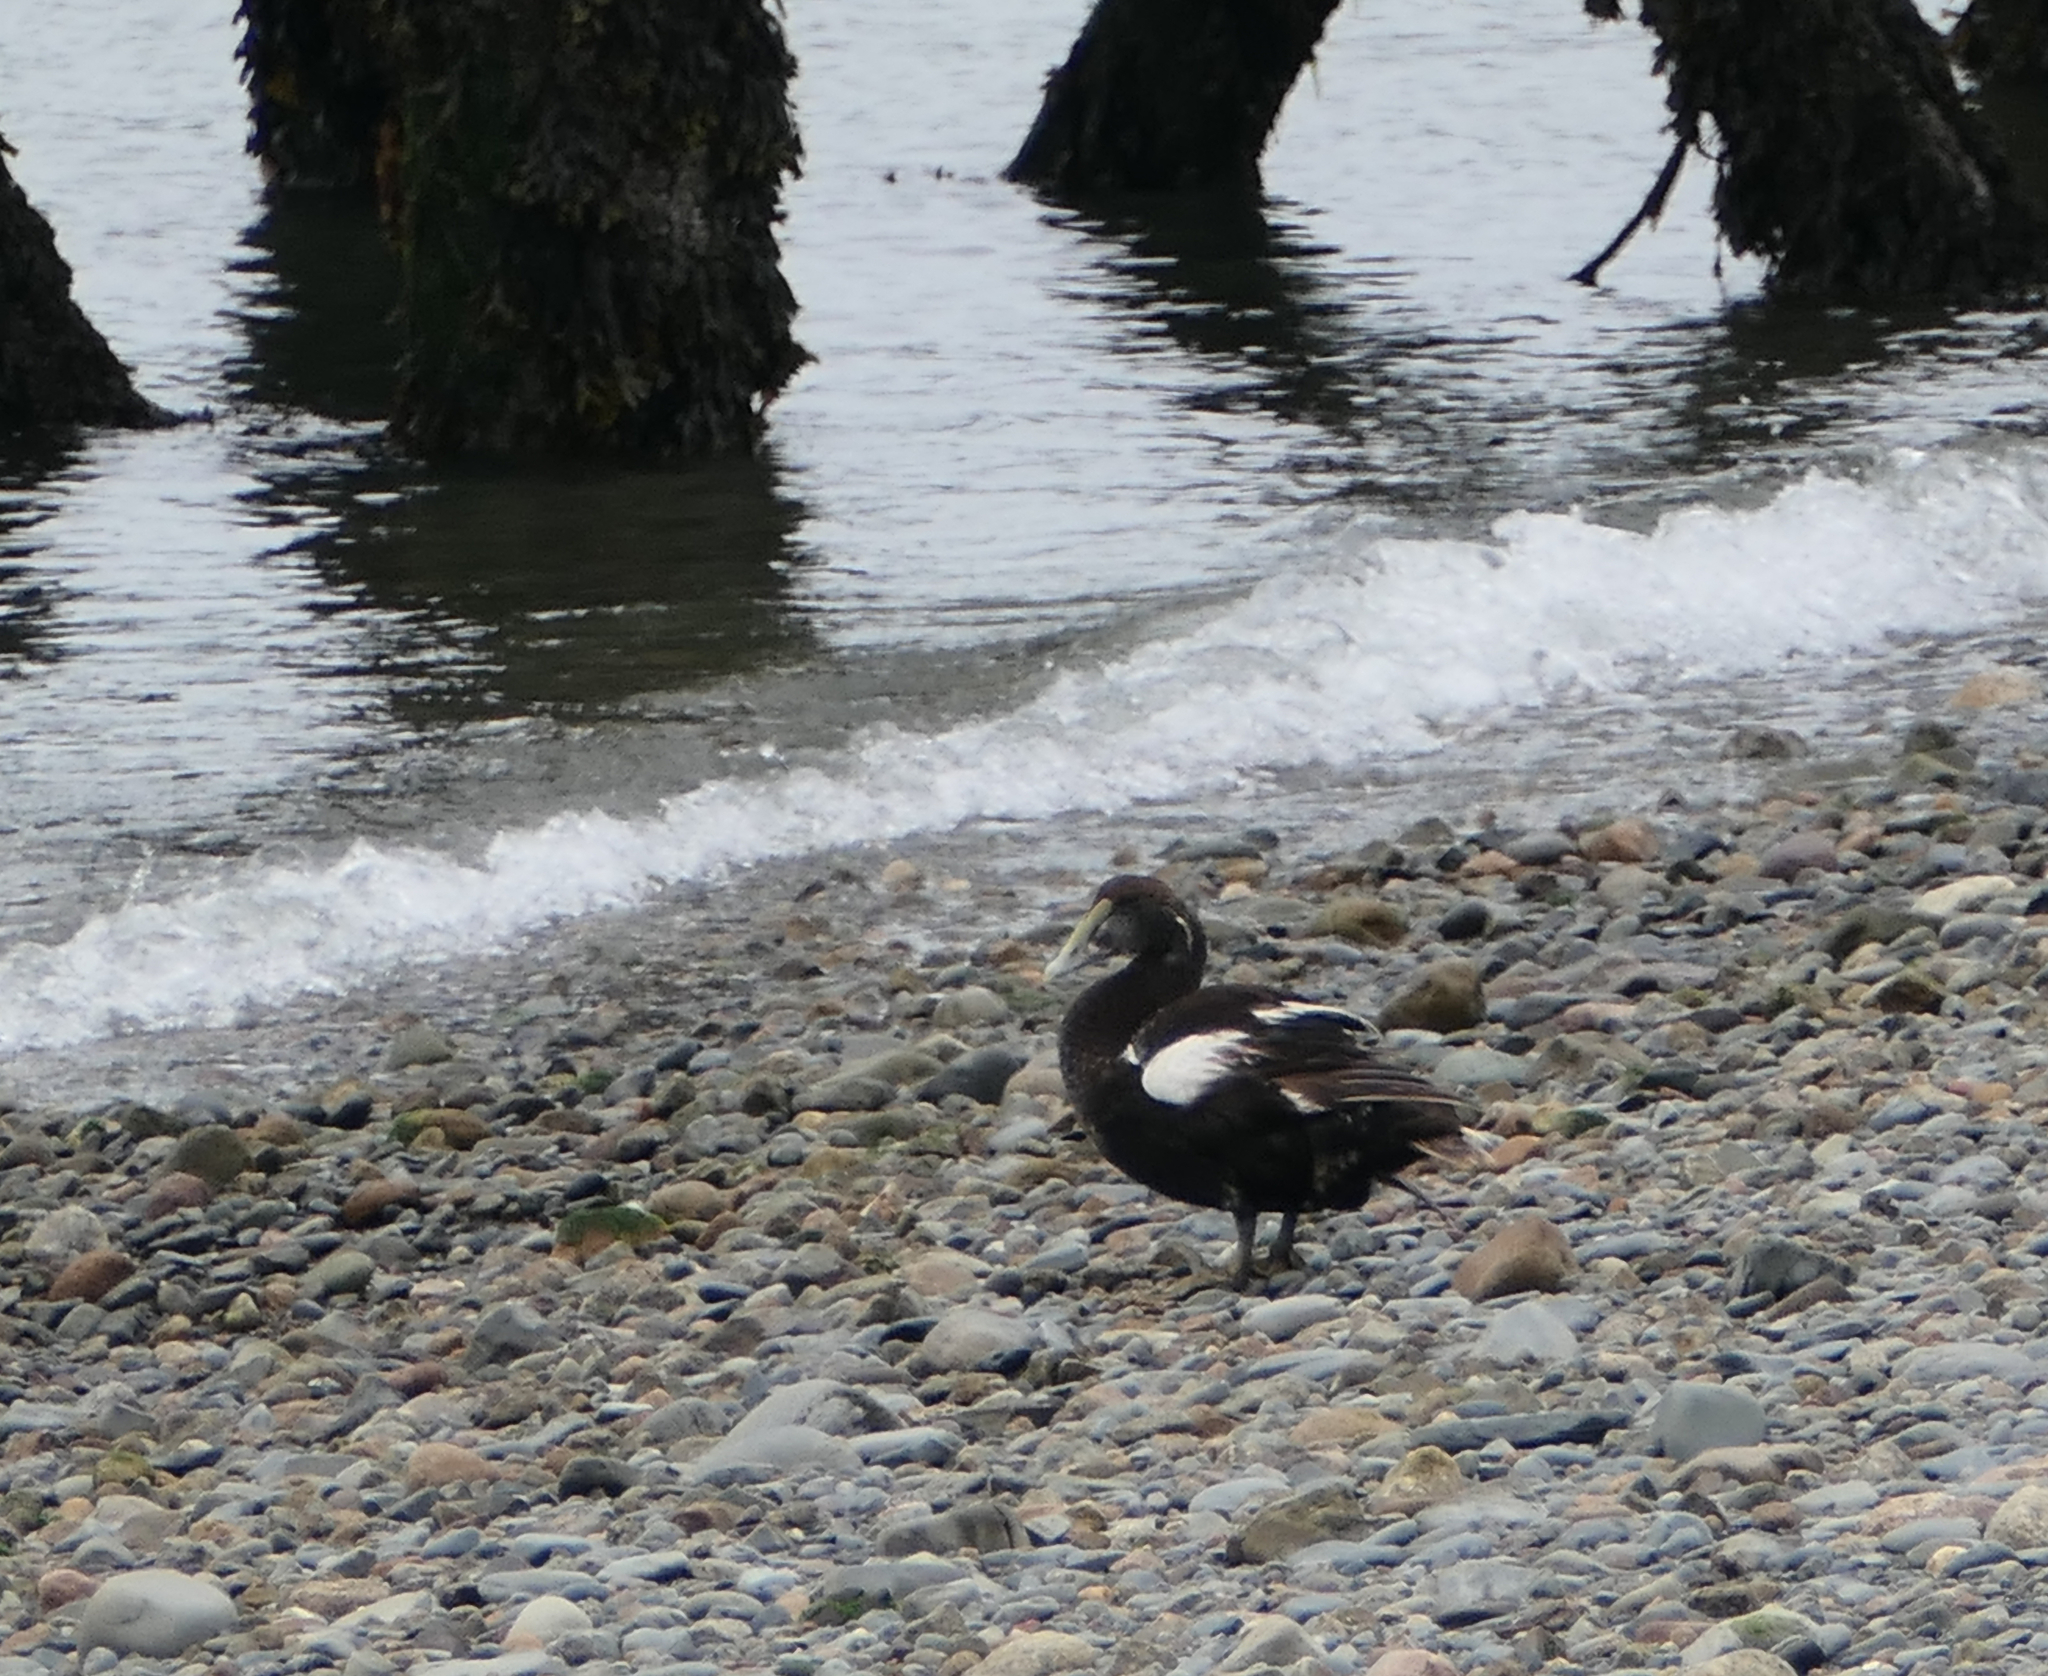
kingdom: Animalia
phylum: Chordata
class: Aves
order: Anseriformes
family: Anatidae
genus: Somateria
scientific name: Somateria mollissima
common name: Common eider
